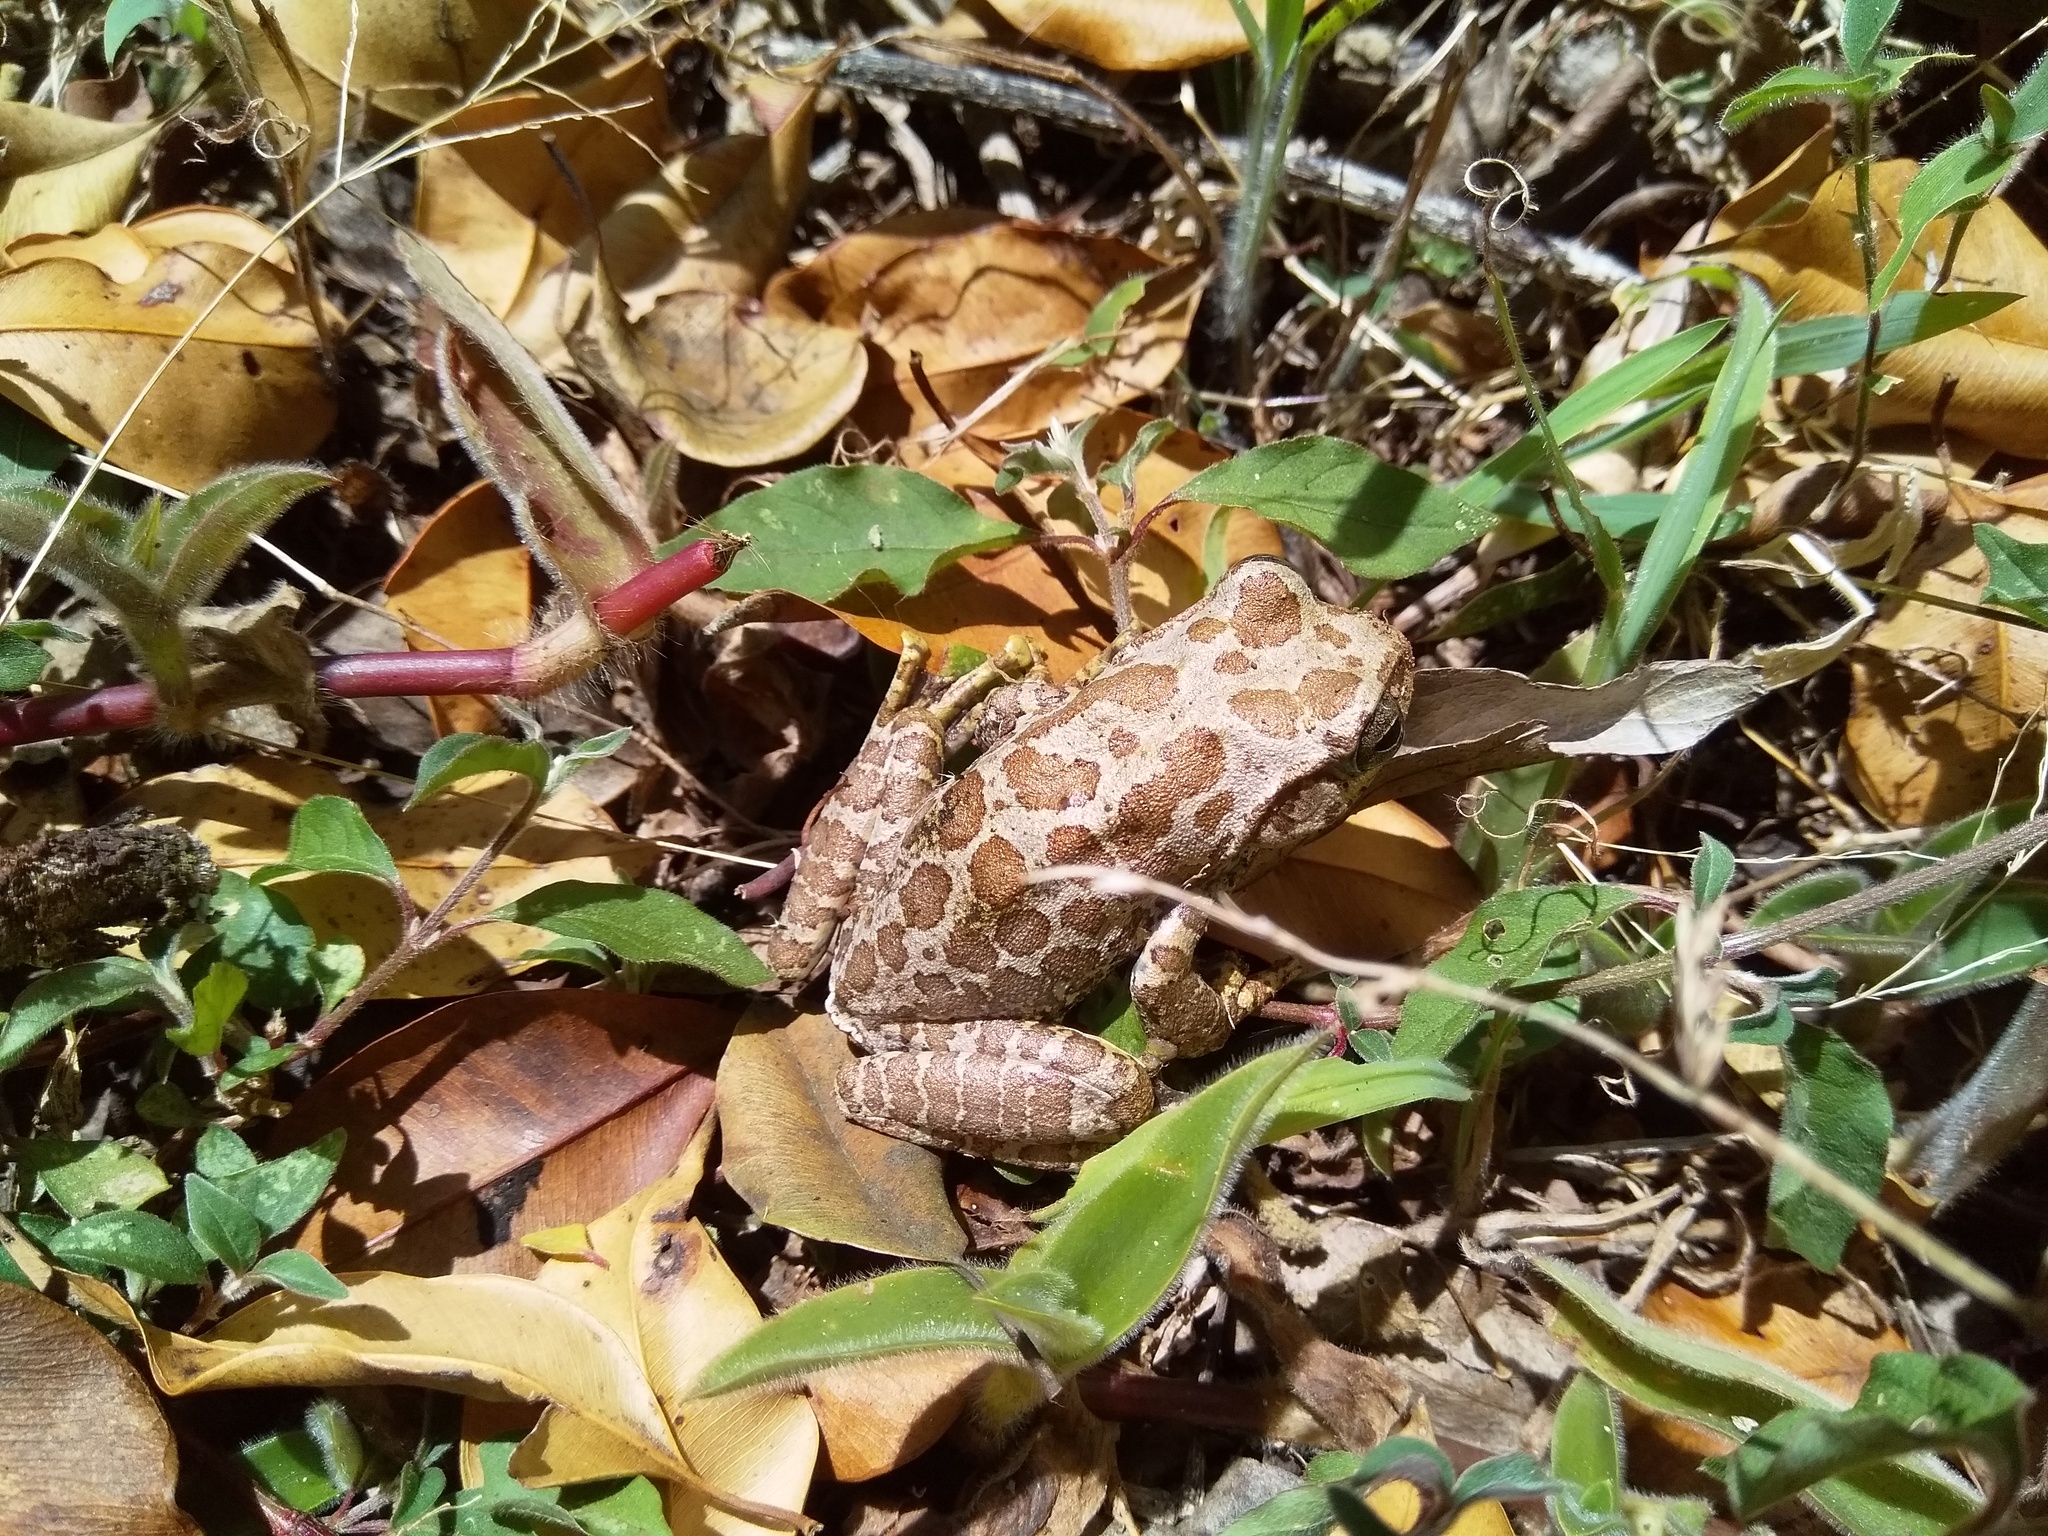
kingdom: Animalia
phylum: Chordata
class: Amphibia
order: Anura
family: Rhacophoridae
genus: Ghatixalus
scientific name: Ghatixalus variabilis
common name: Green frog of the neelgherries
